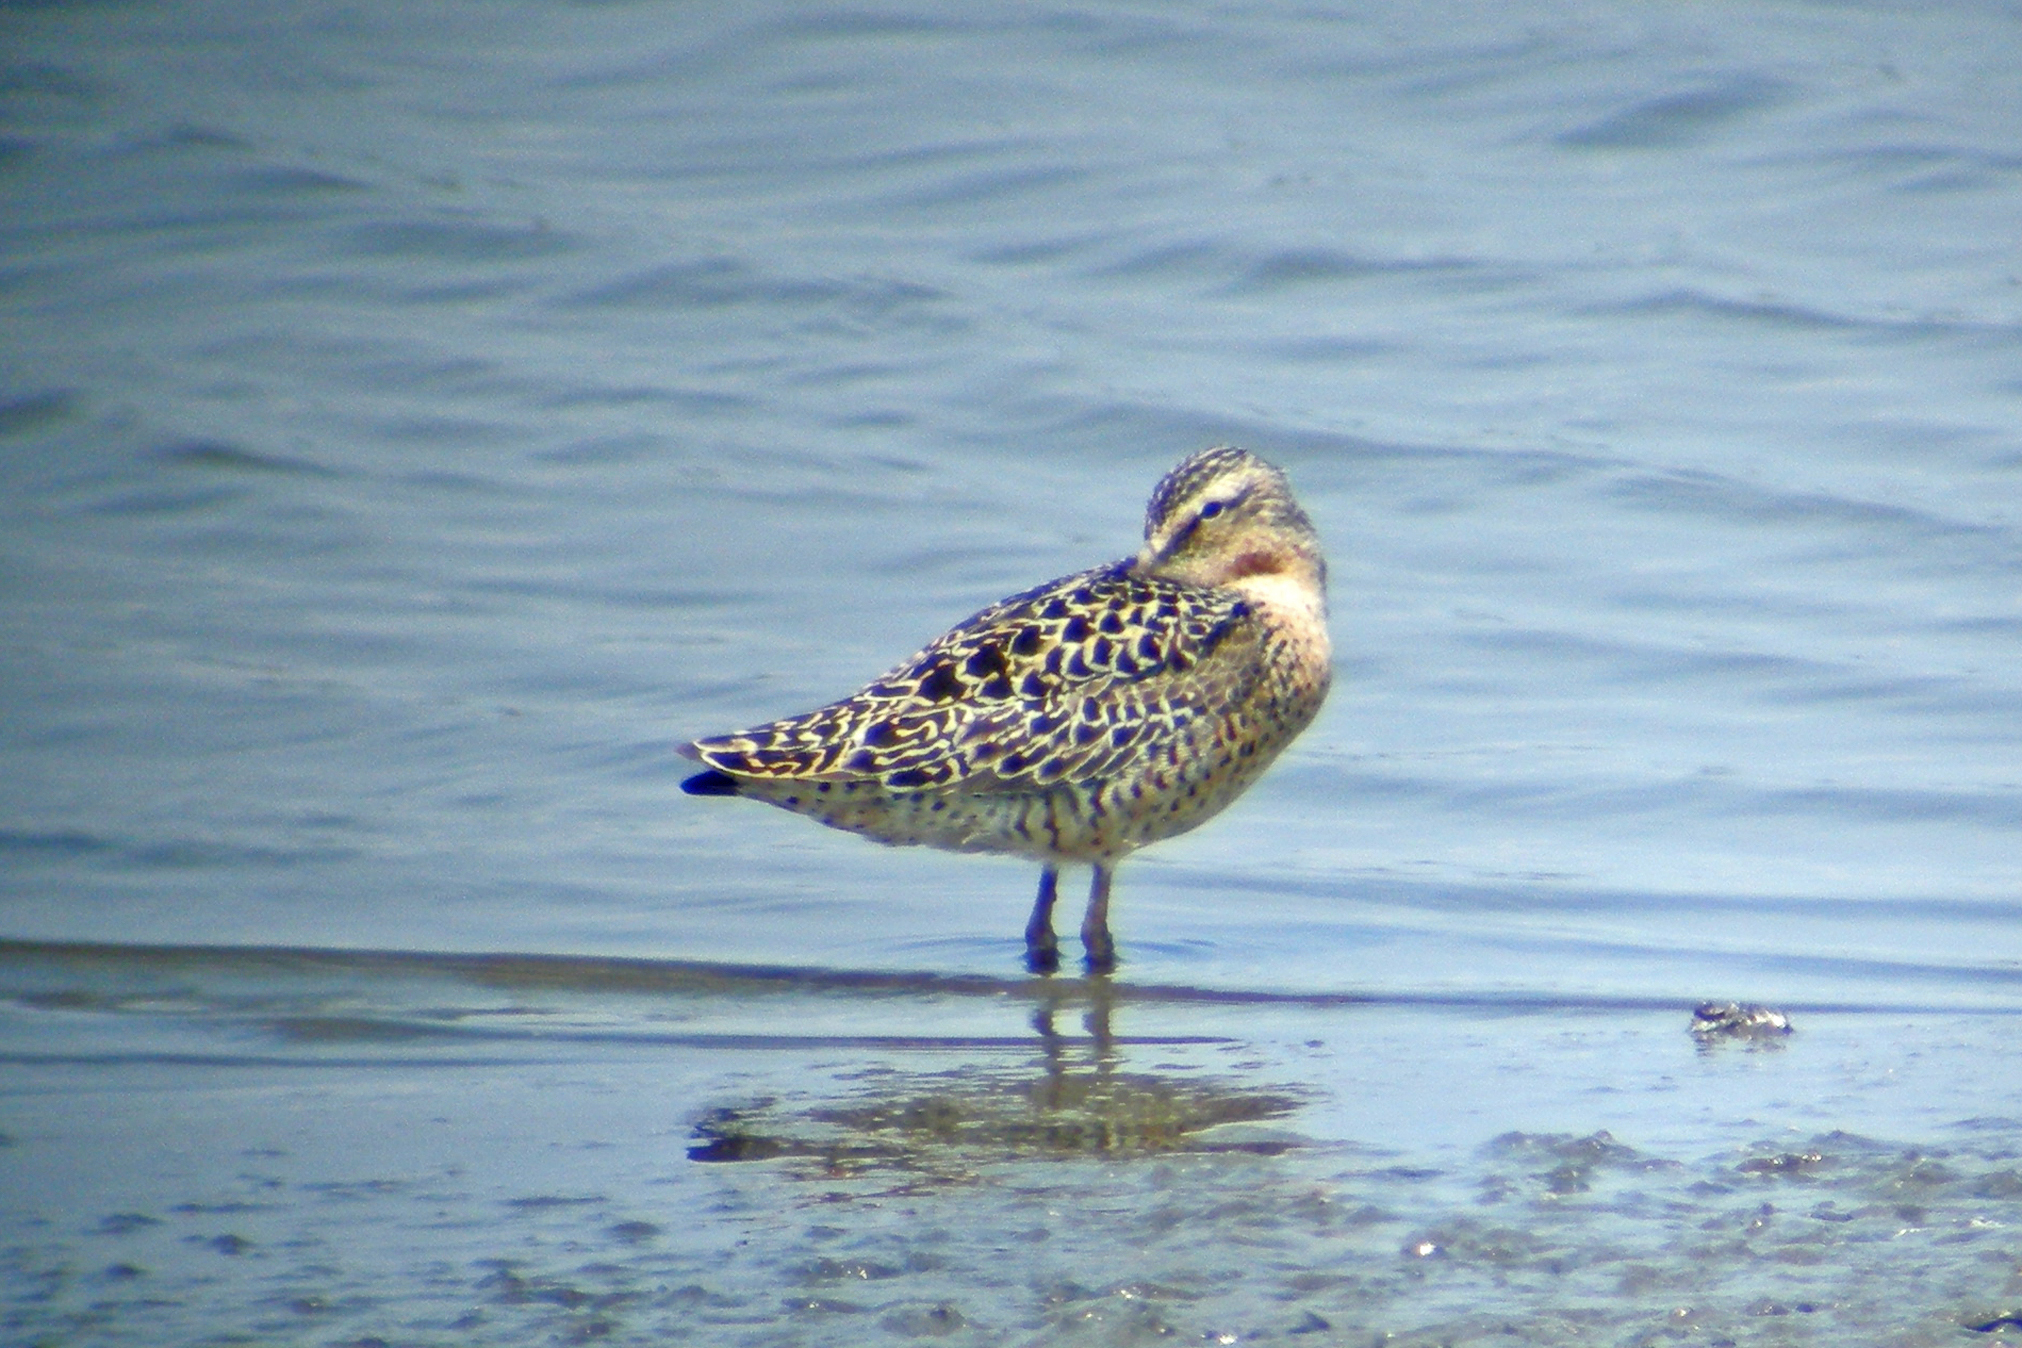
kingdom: Animalia
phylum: Chordata
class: Aves
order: Charadriiformes
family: Scolopacidae
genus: Limnodromus
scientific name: Limnodromus griseus
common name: Short-billed dowitcher
